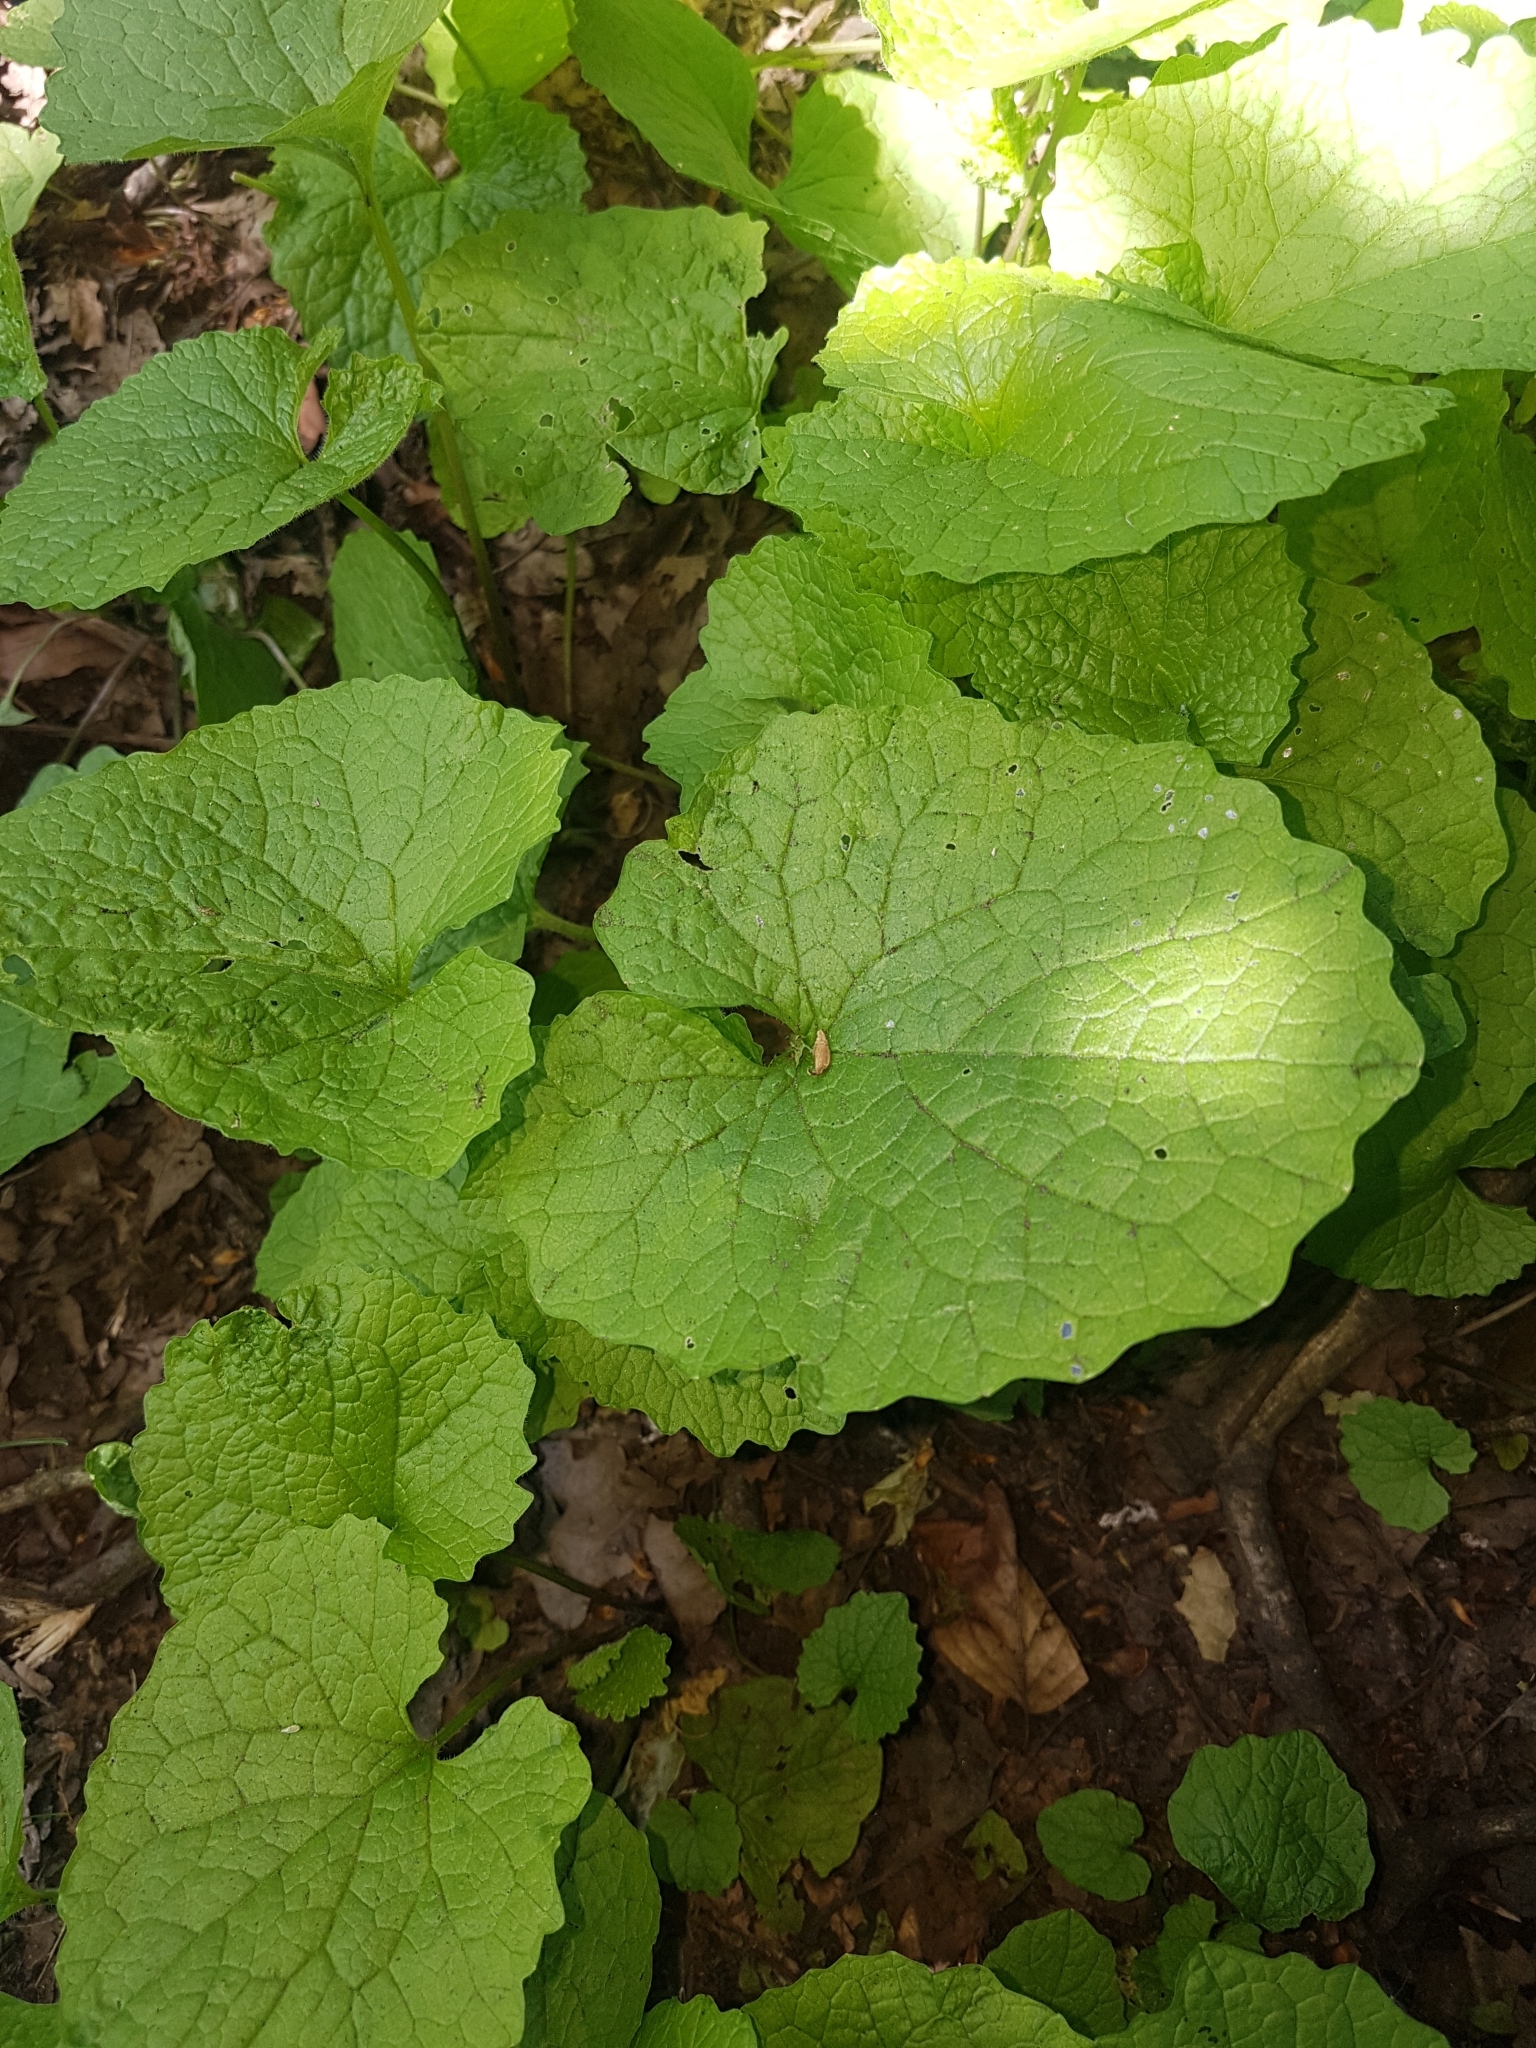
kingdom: Plantae
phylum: Tracheophyta
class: Magnoliopsida
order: Brassicales
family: Brassicaceae
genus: Alliaria
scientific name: Alliaria petiolata
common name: Garlic mustard
